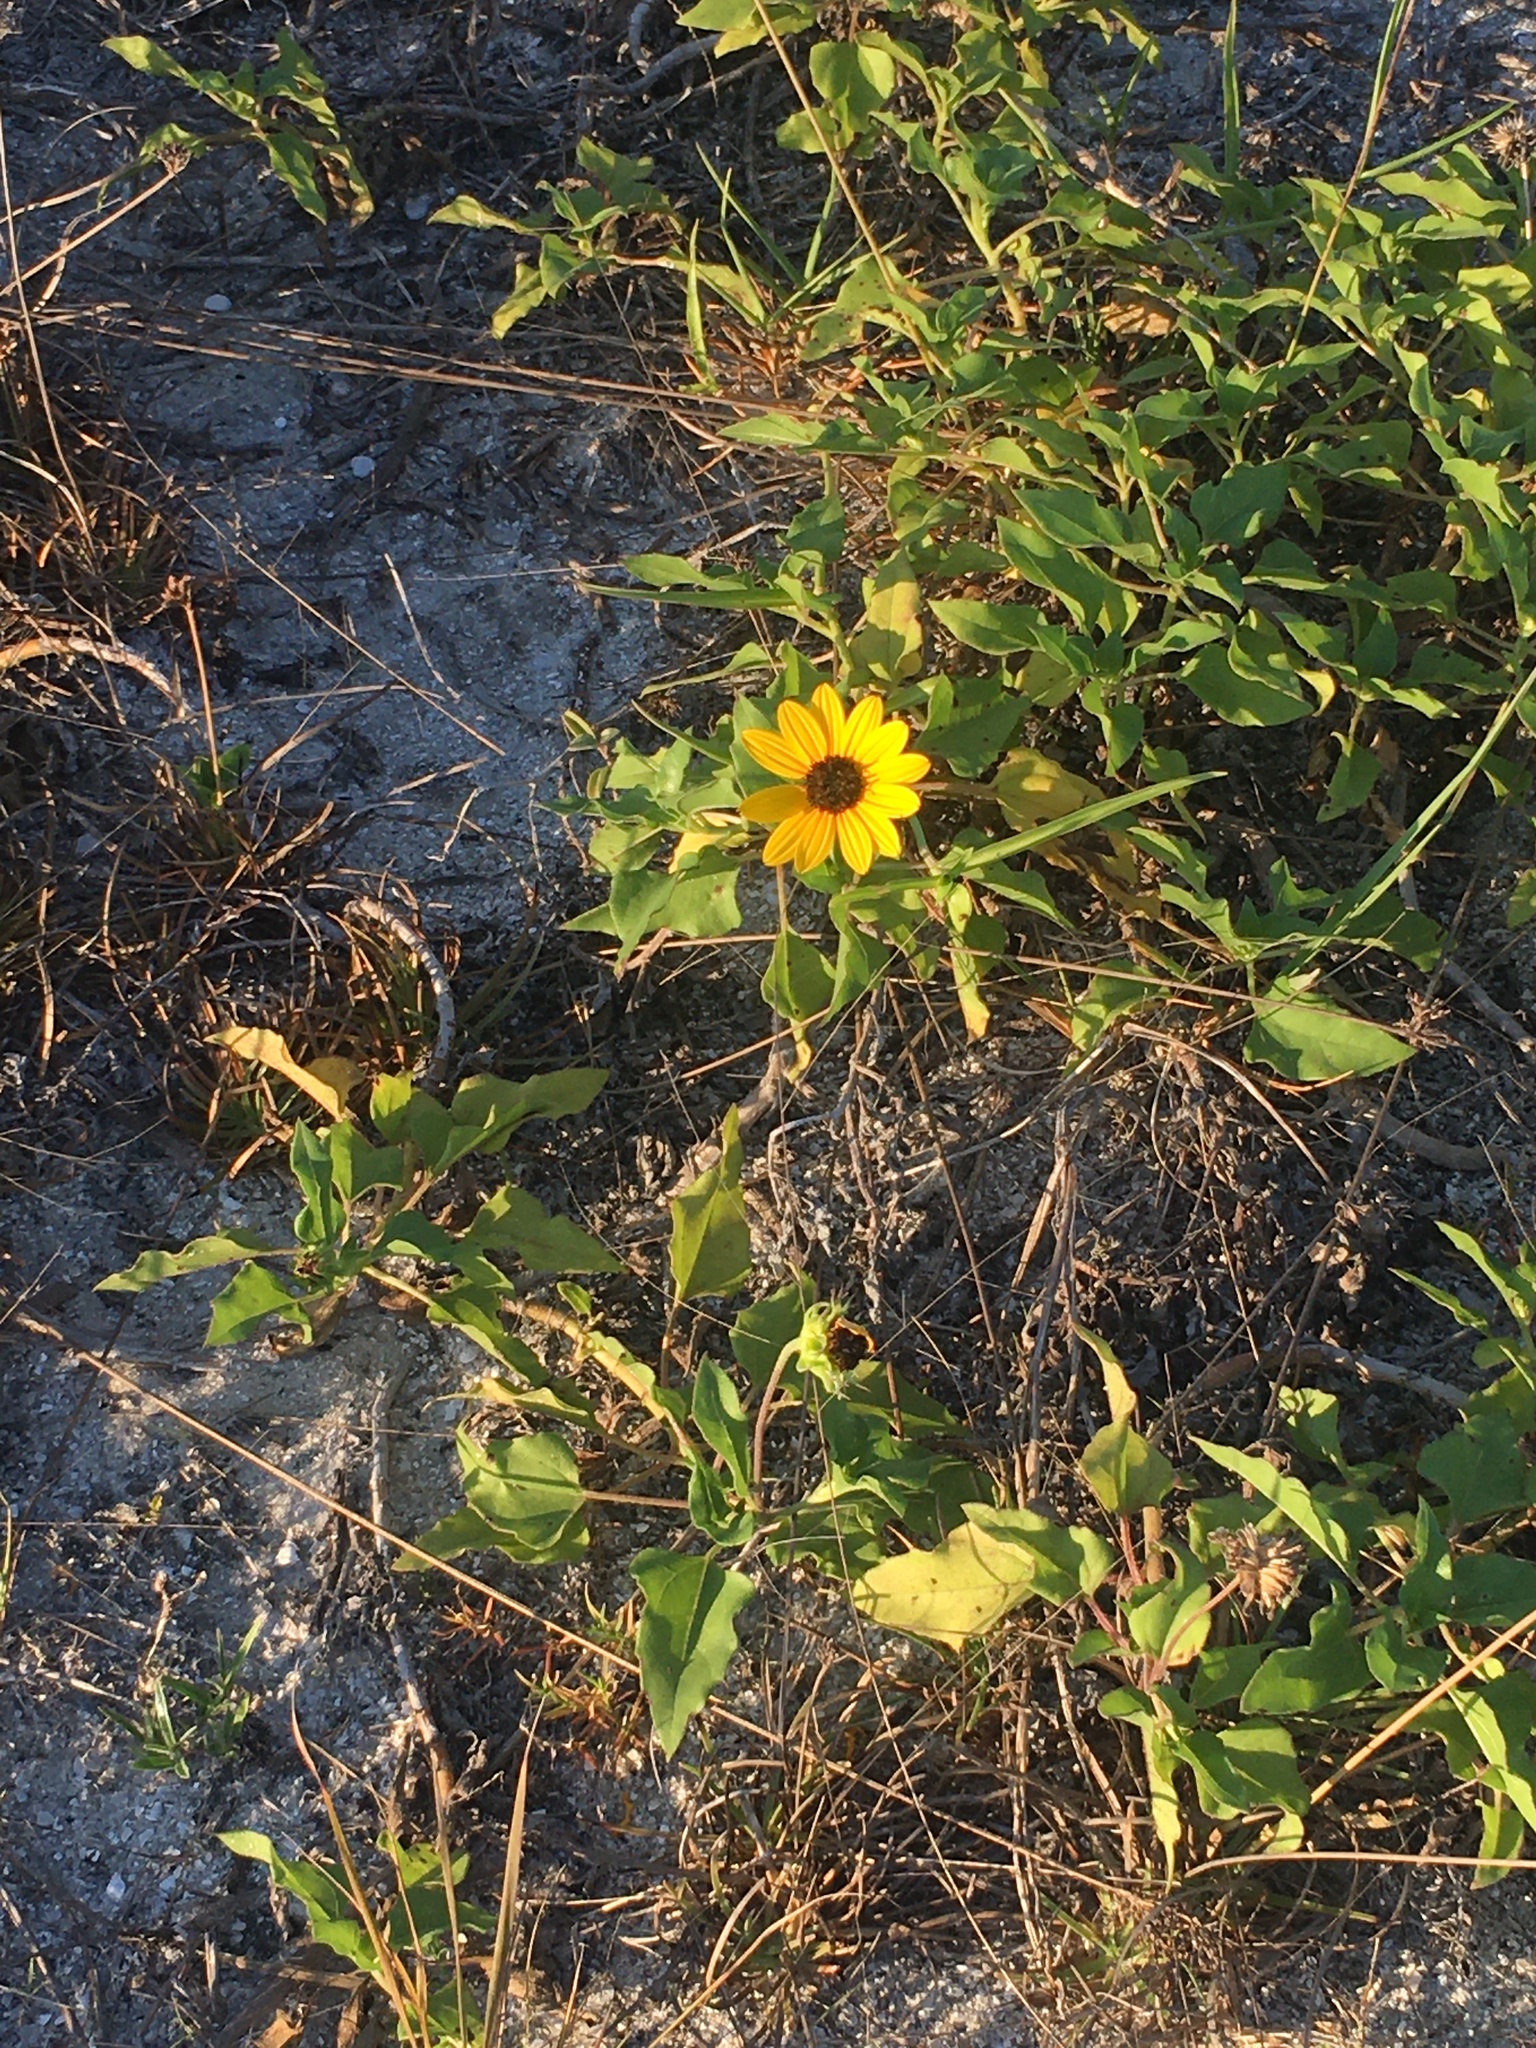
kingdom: Plantae
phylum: Tracheophyta
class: Magnoliopsida
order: Asterales
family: Asteraceae
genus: Helianthus
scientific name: Helianthus debilis
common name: Weak sunflower
